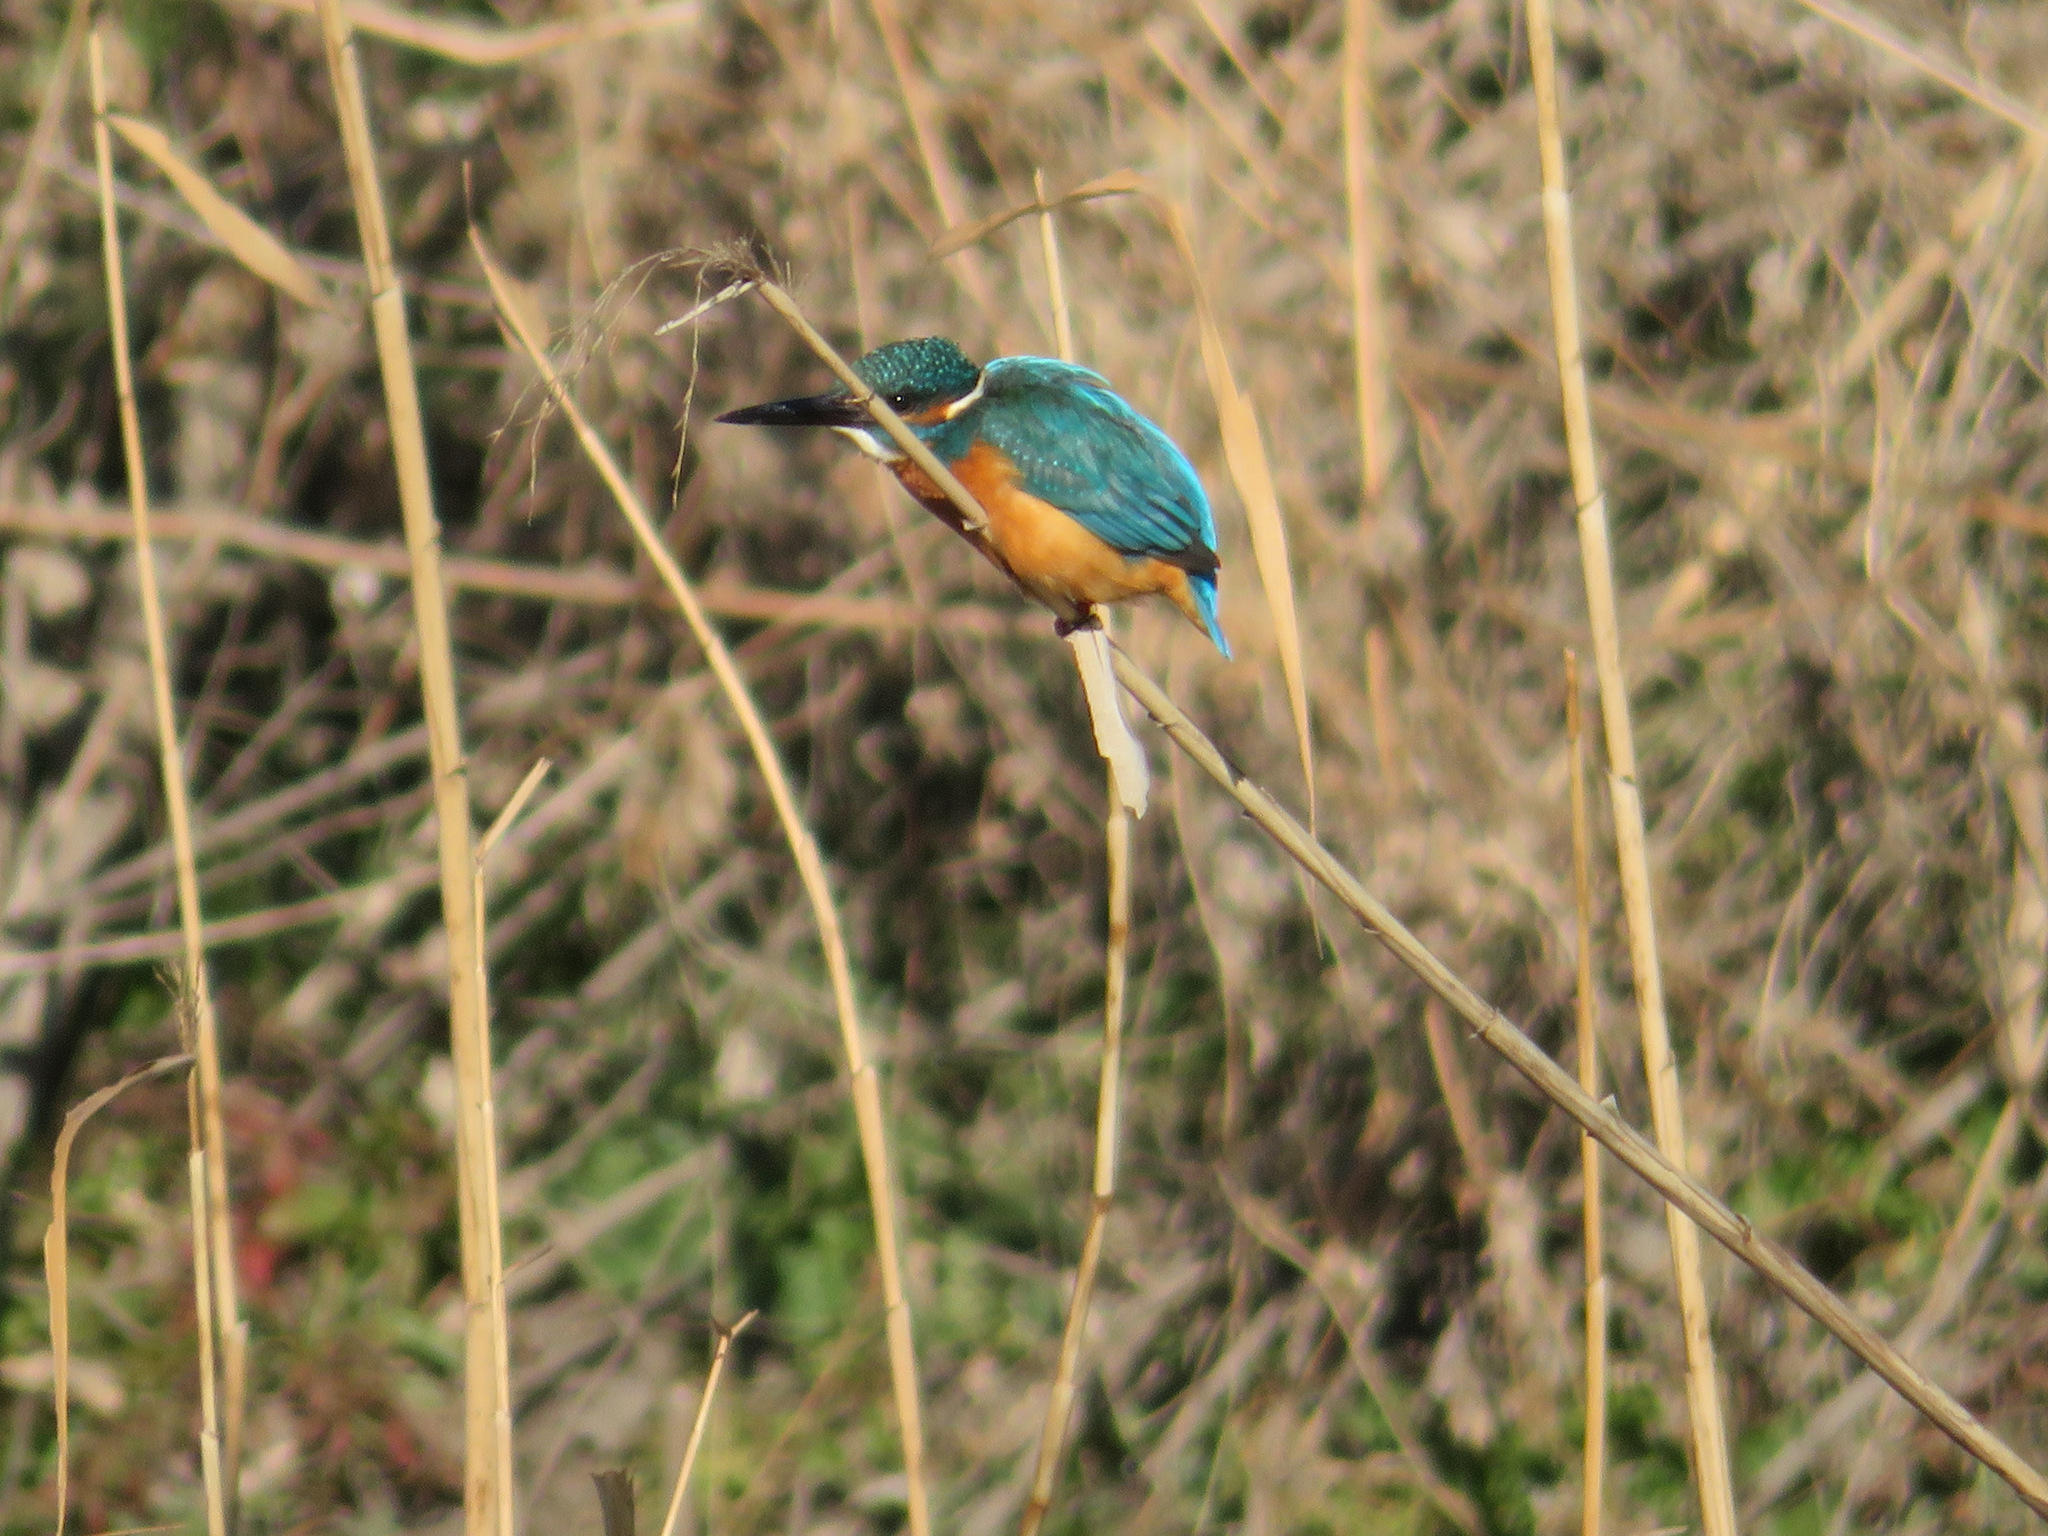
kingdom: Animalia
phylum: Chordata
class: Aves
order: Coraciiformes
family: Alcedinidae
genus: Alcedo
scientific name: Alcedo atthis
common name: Common kingfisher
